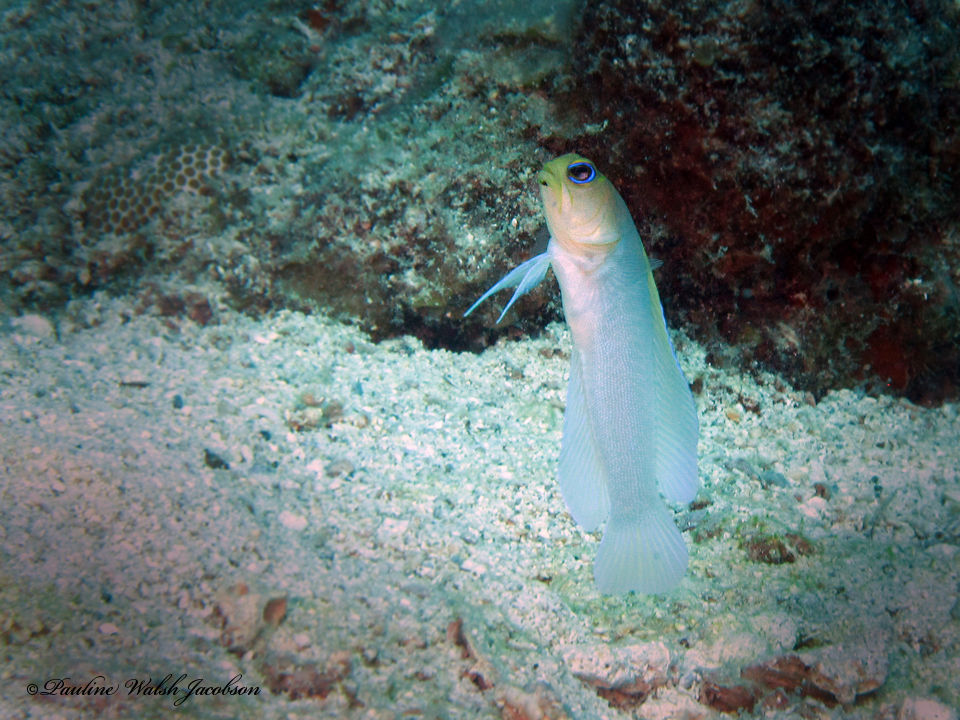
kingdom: Animalia
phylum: Chordata
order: Perciformes
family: Opistognathidae
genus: Opistognathus
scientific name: Opistognathus aurifrons
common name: Yellowhead jawfish
